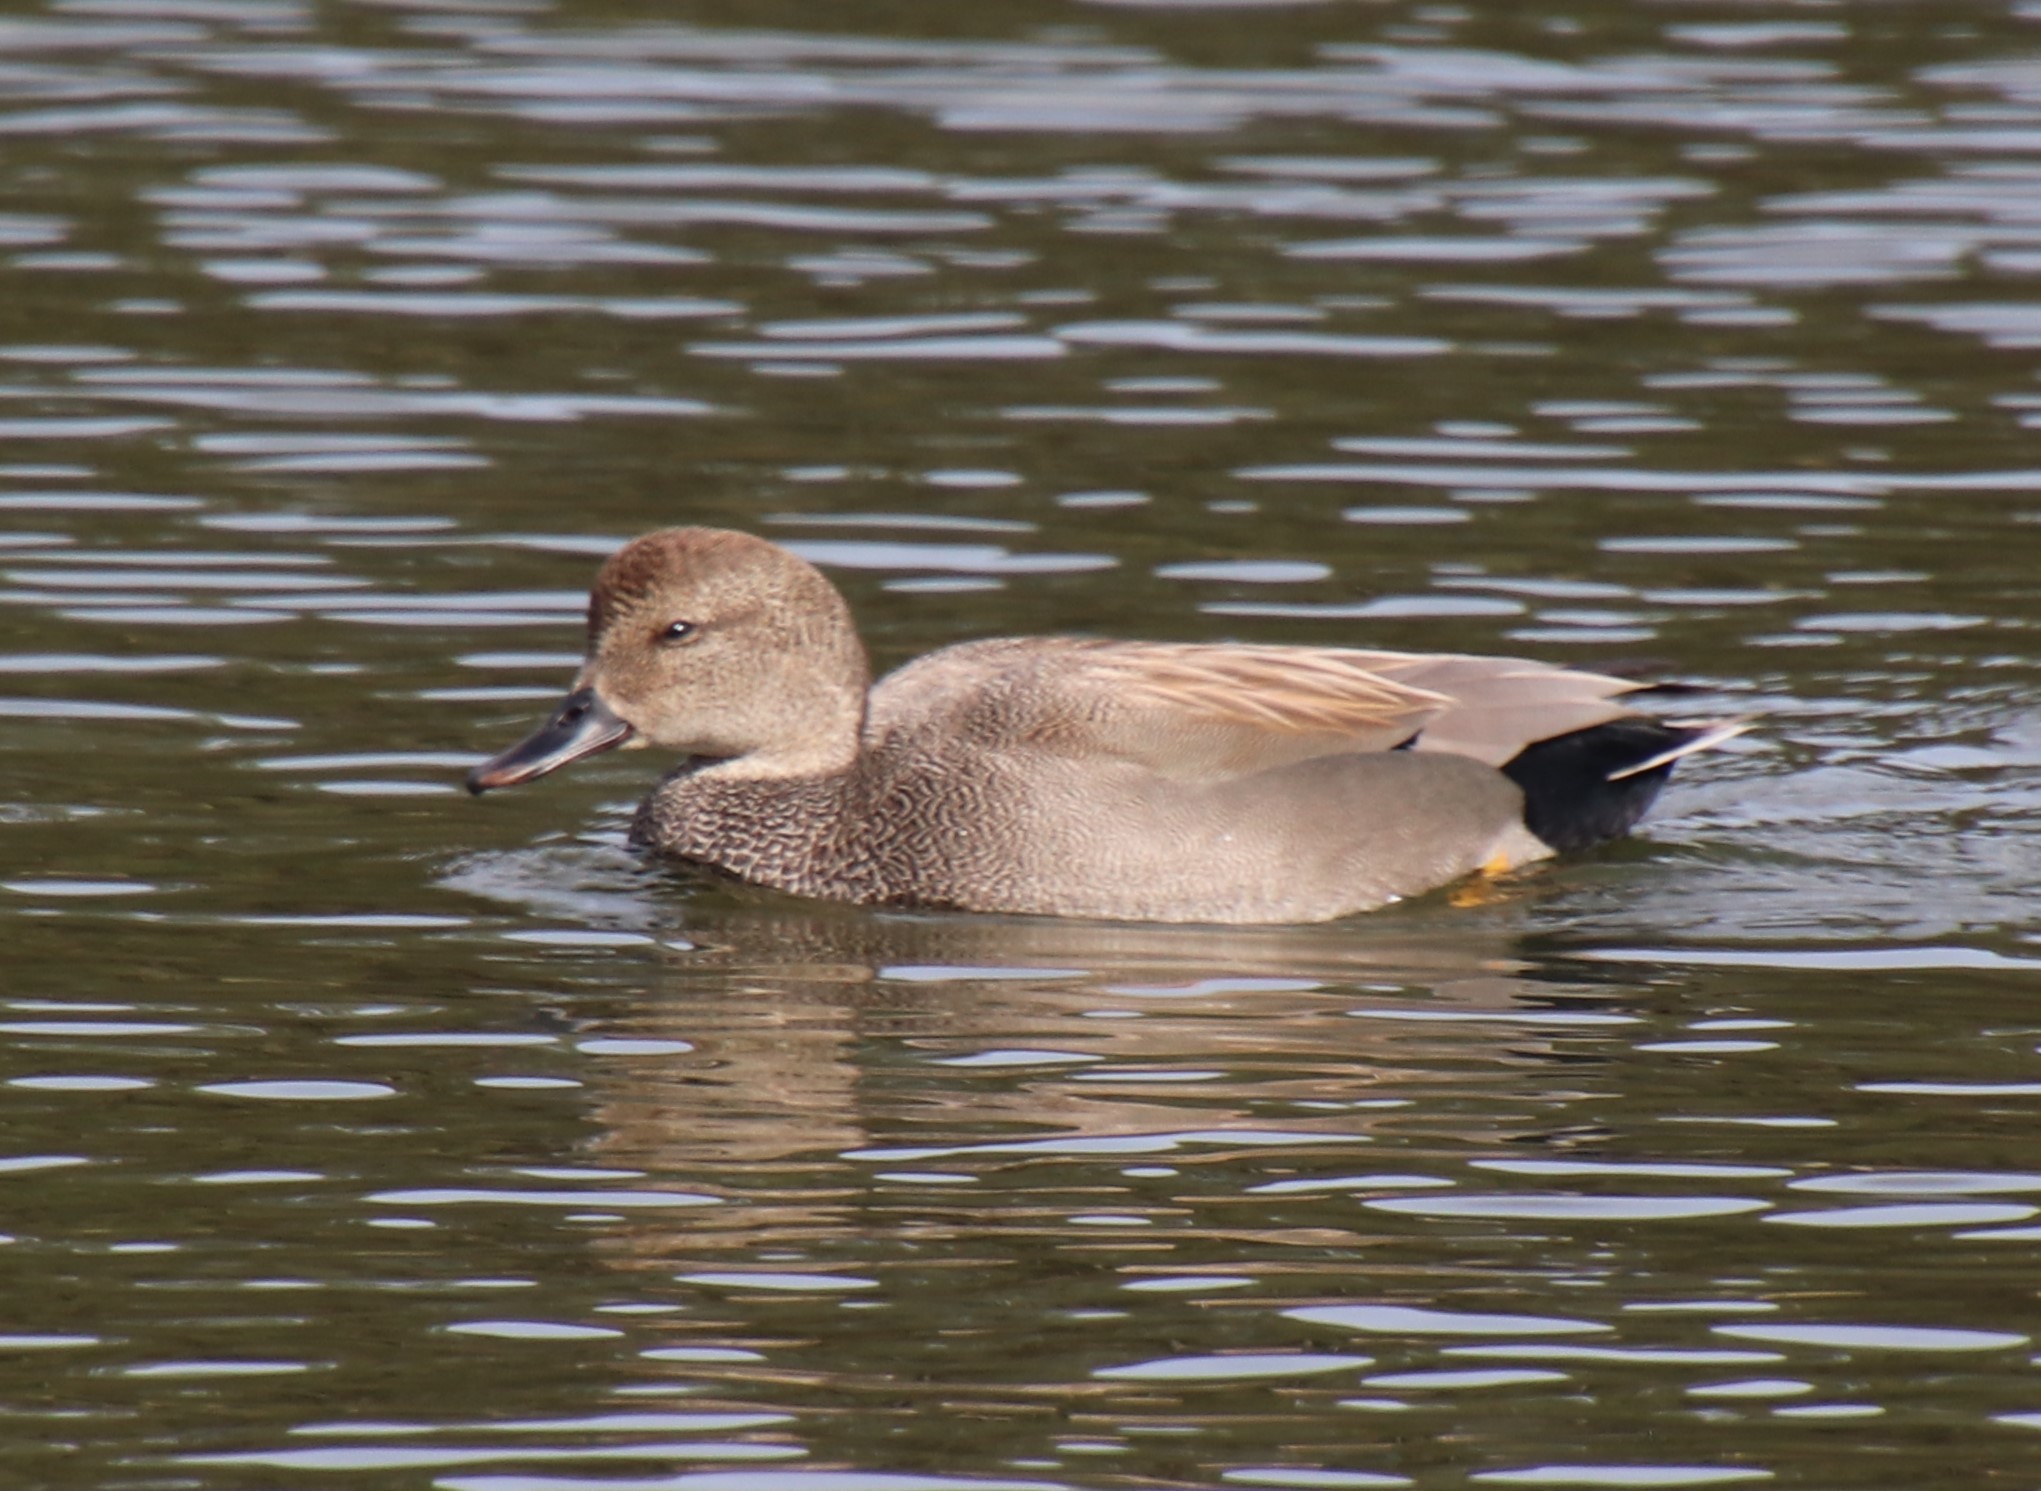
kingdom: Animalia
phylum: Chordata
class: Aves
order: Anseriformes
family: Anatidae
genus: Mareca
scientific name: Mareca strepera
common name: Gadwall
